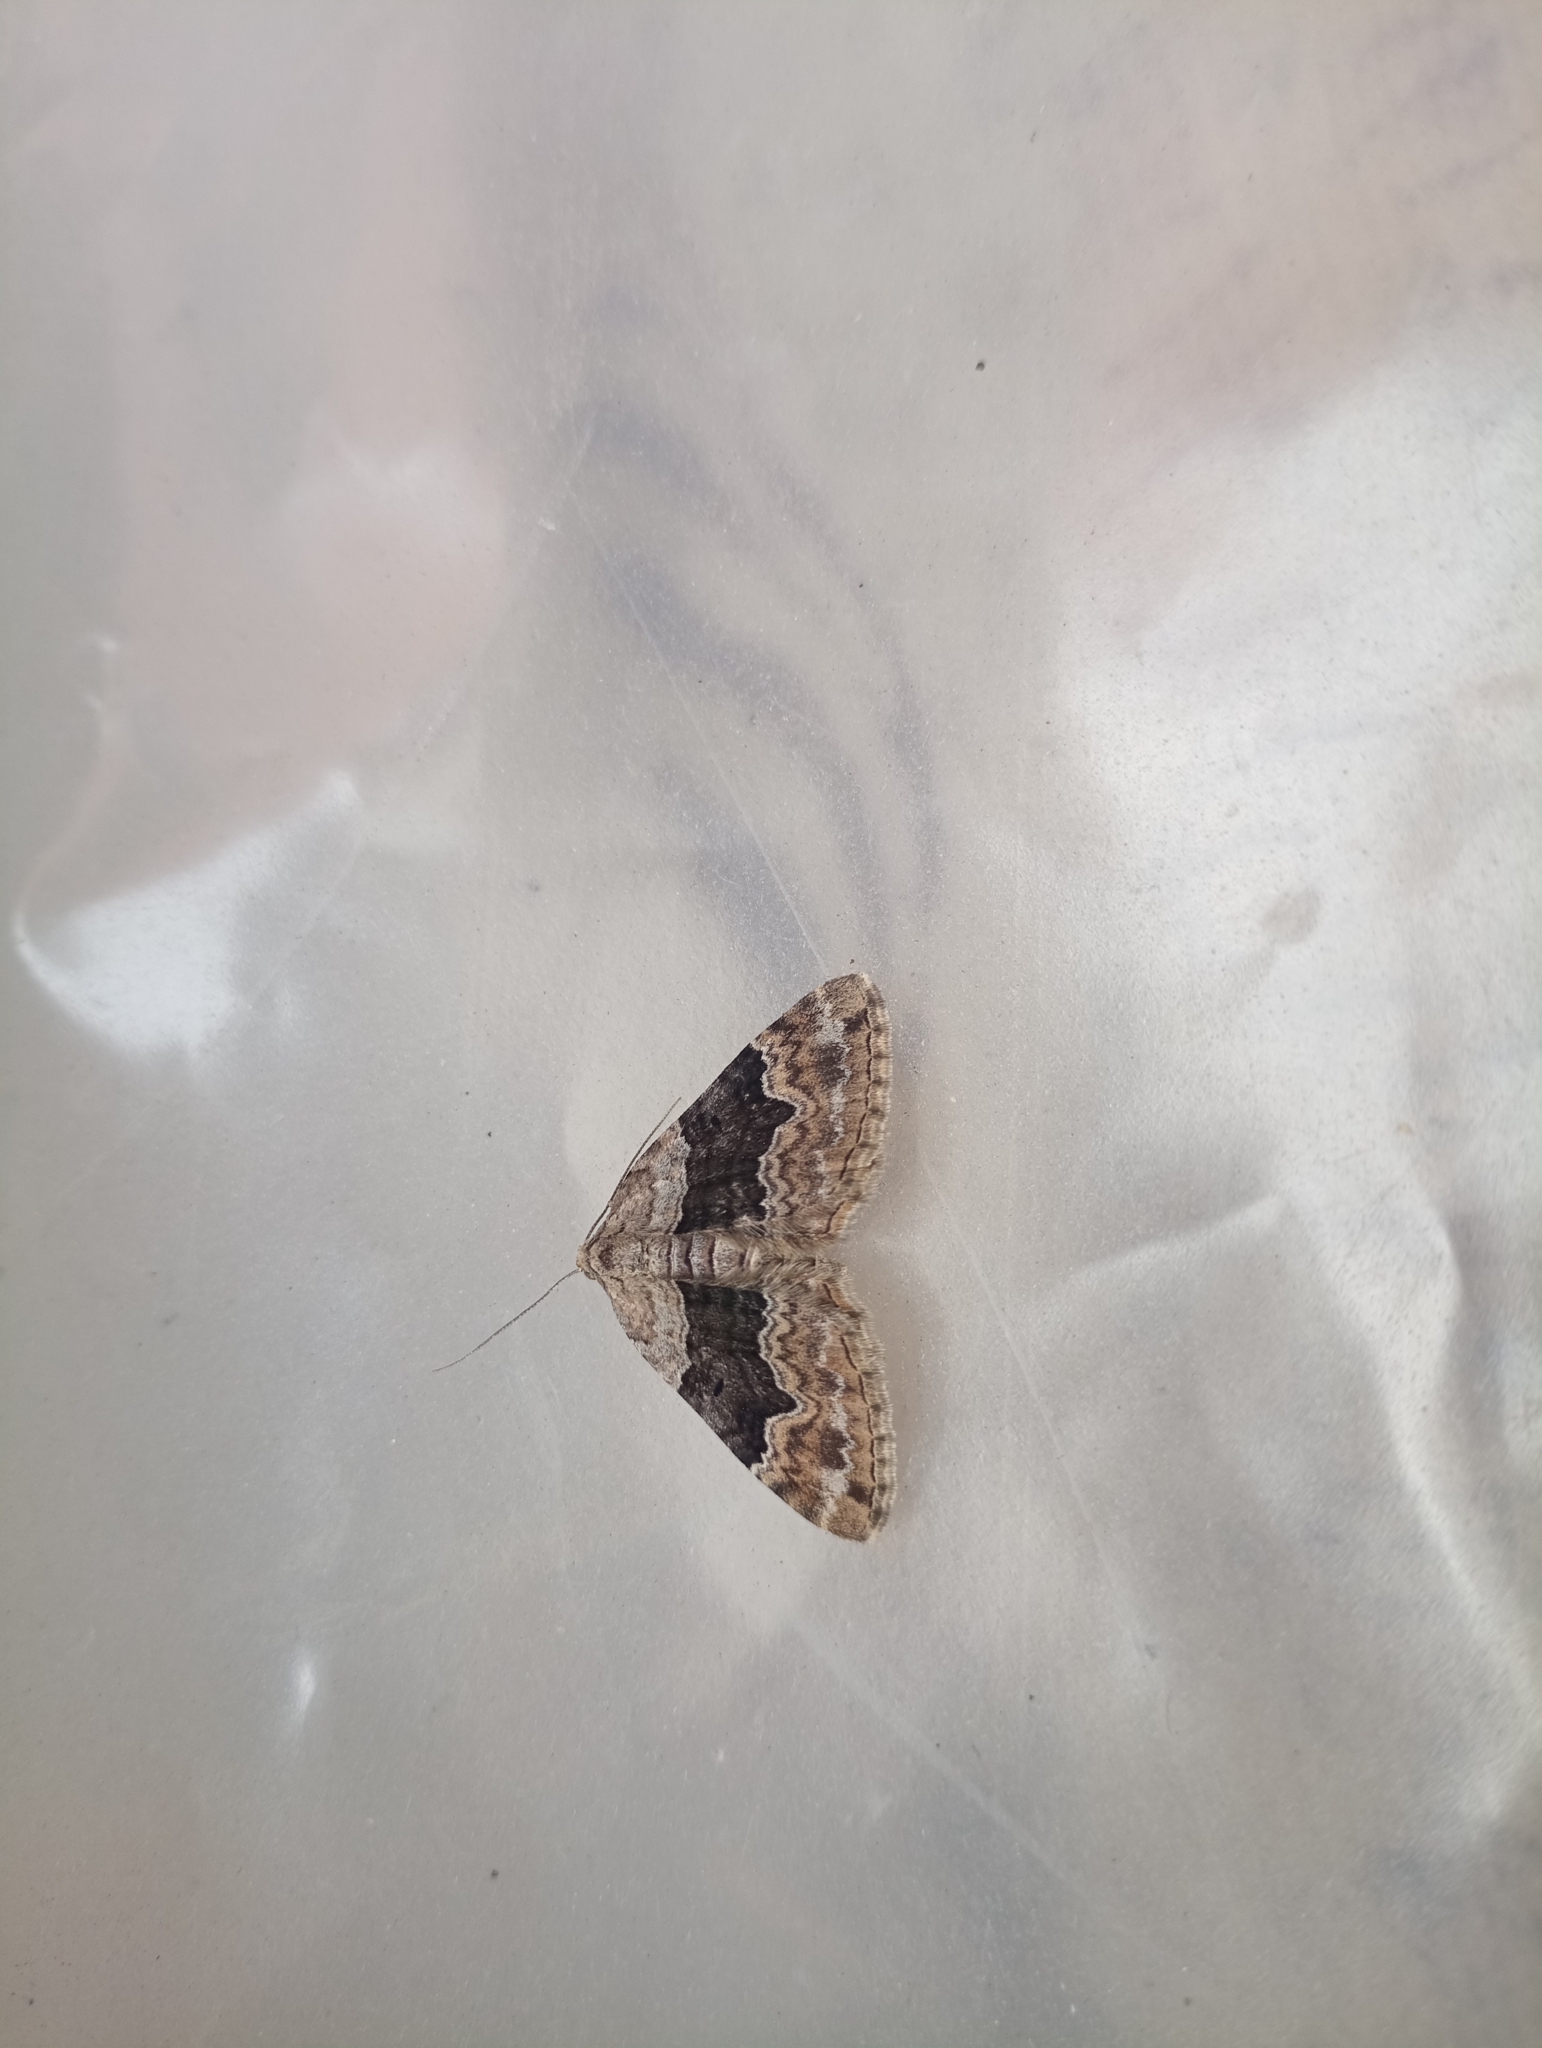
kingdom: Animalia
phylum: Arthropoda
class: Insecta
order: Lepidoptera
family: Geometridae
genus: Xanthorhoe
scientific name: Xanthorhoe quadrifasiata
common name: Large twin-spot carpet
